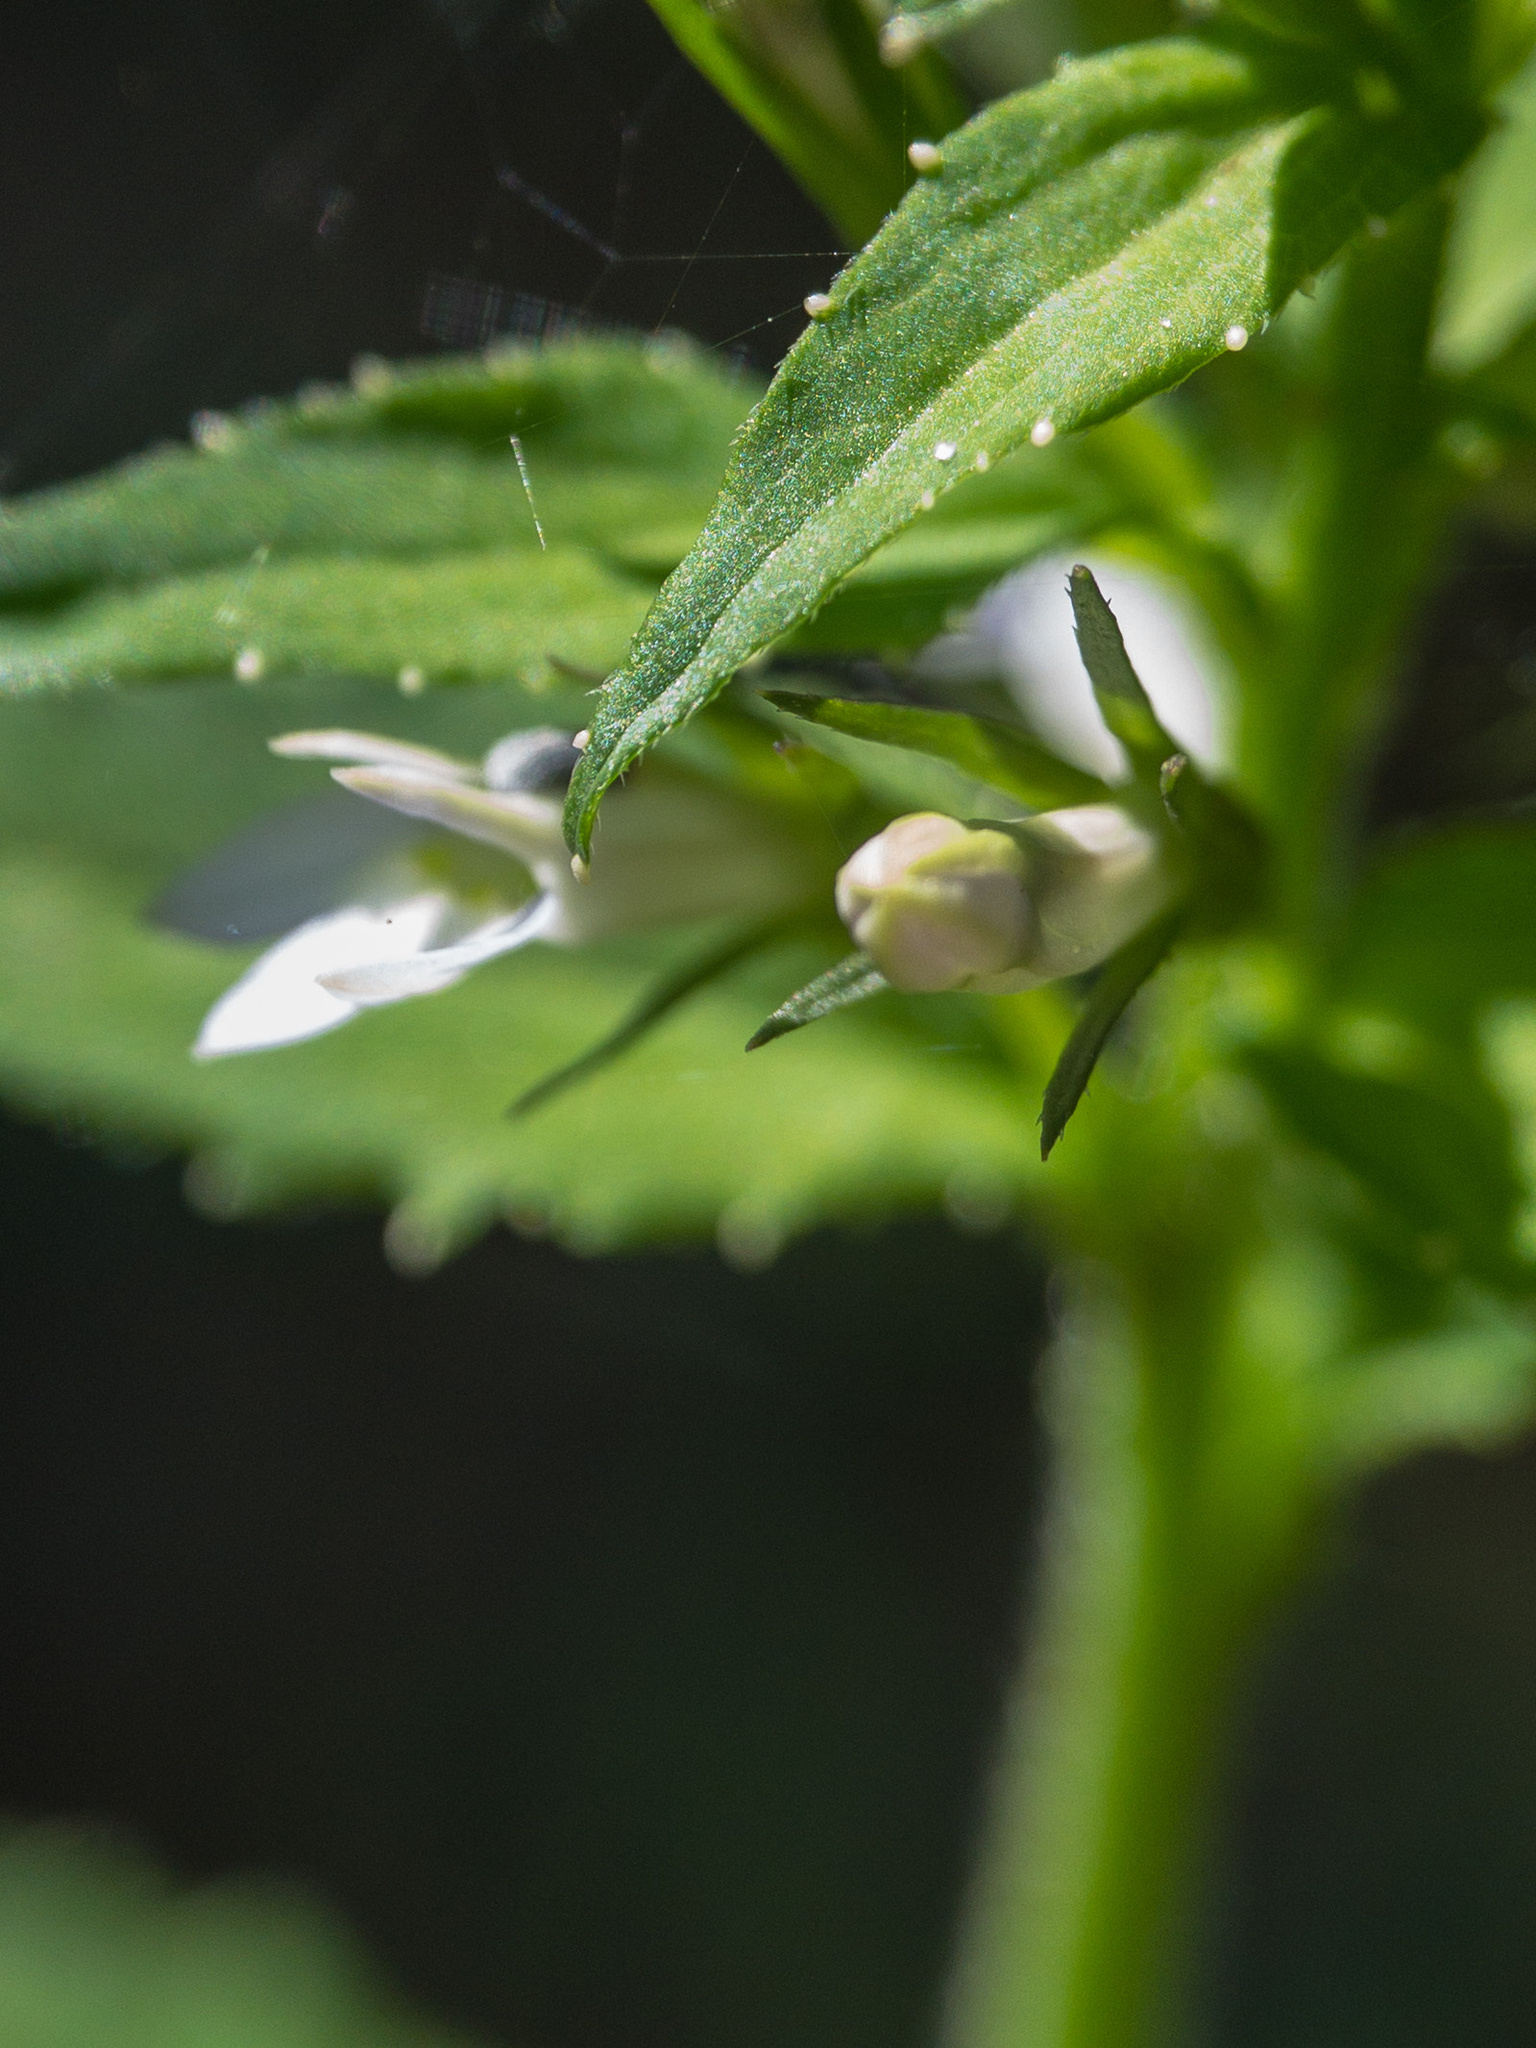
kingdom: Plantae
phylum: Tracheophyta
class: Magnoliopsida
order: Asterales
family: Campanulaceae
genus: Lobelia
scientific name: Lobelia inflata
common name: Indian tobacco
